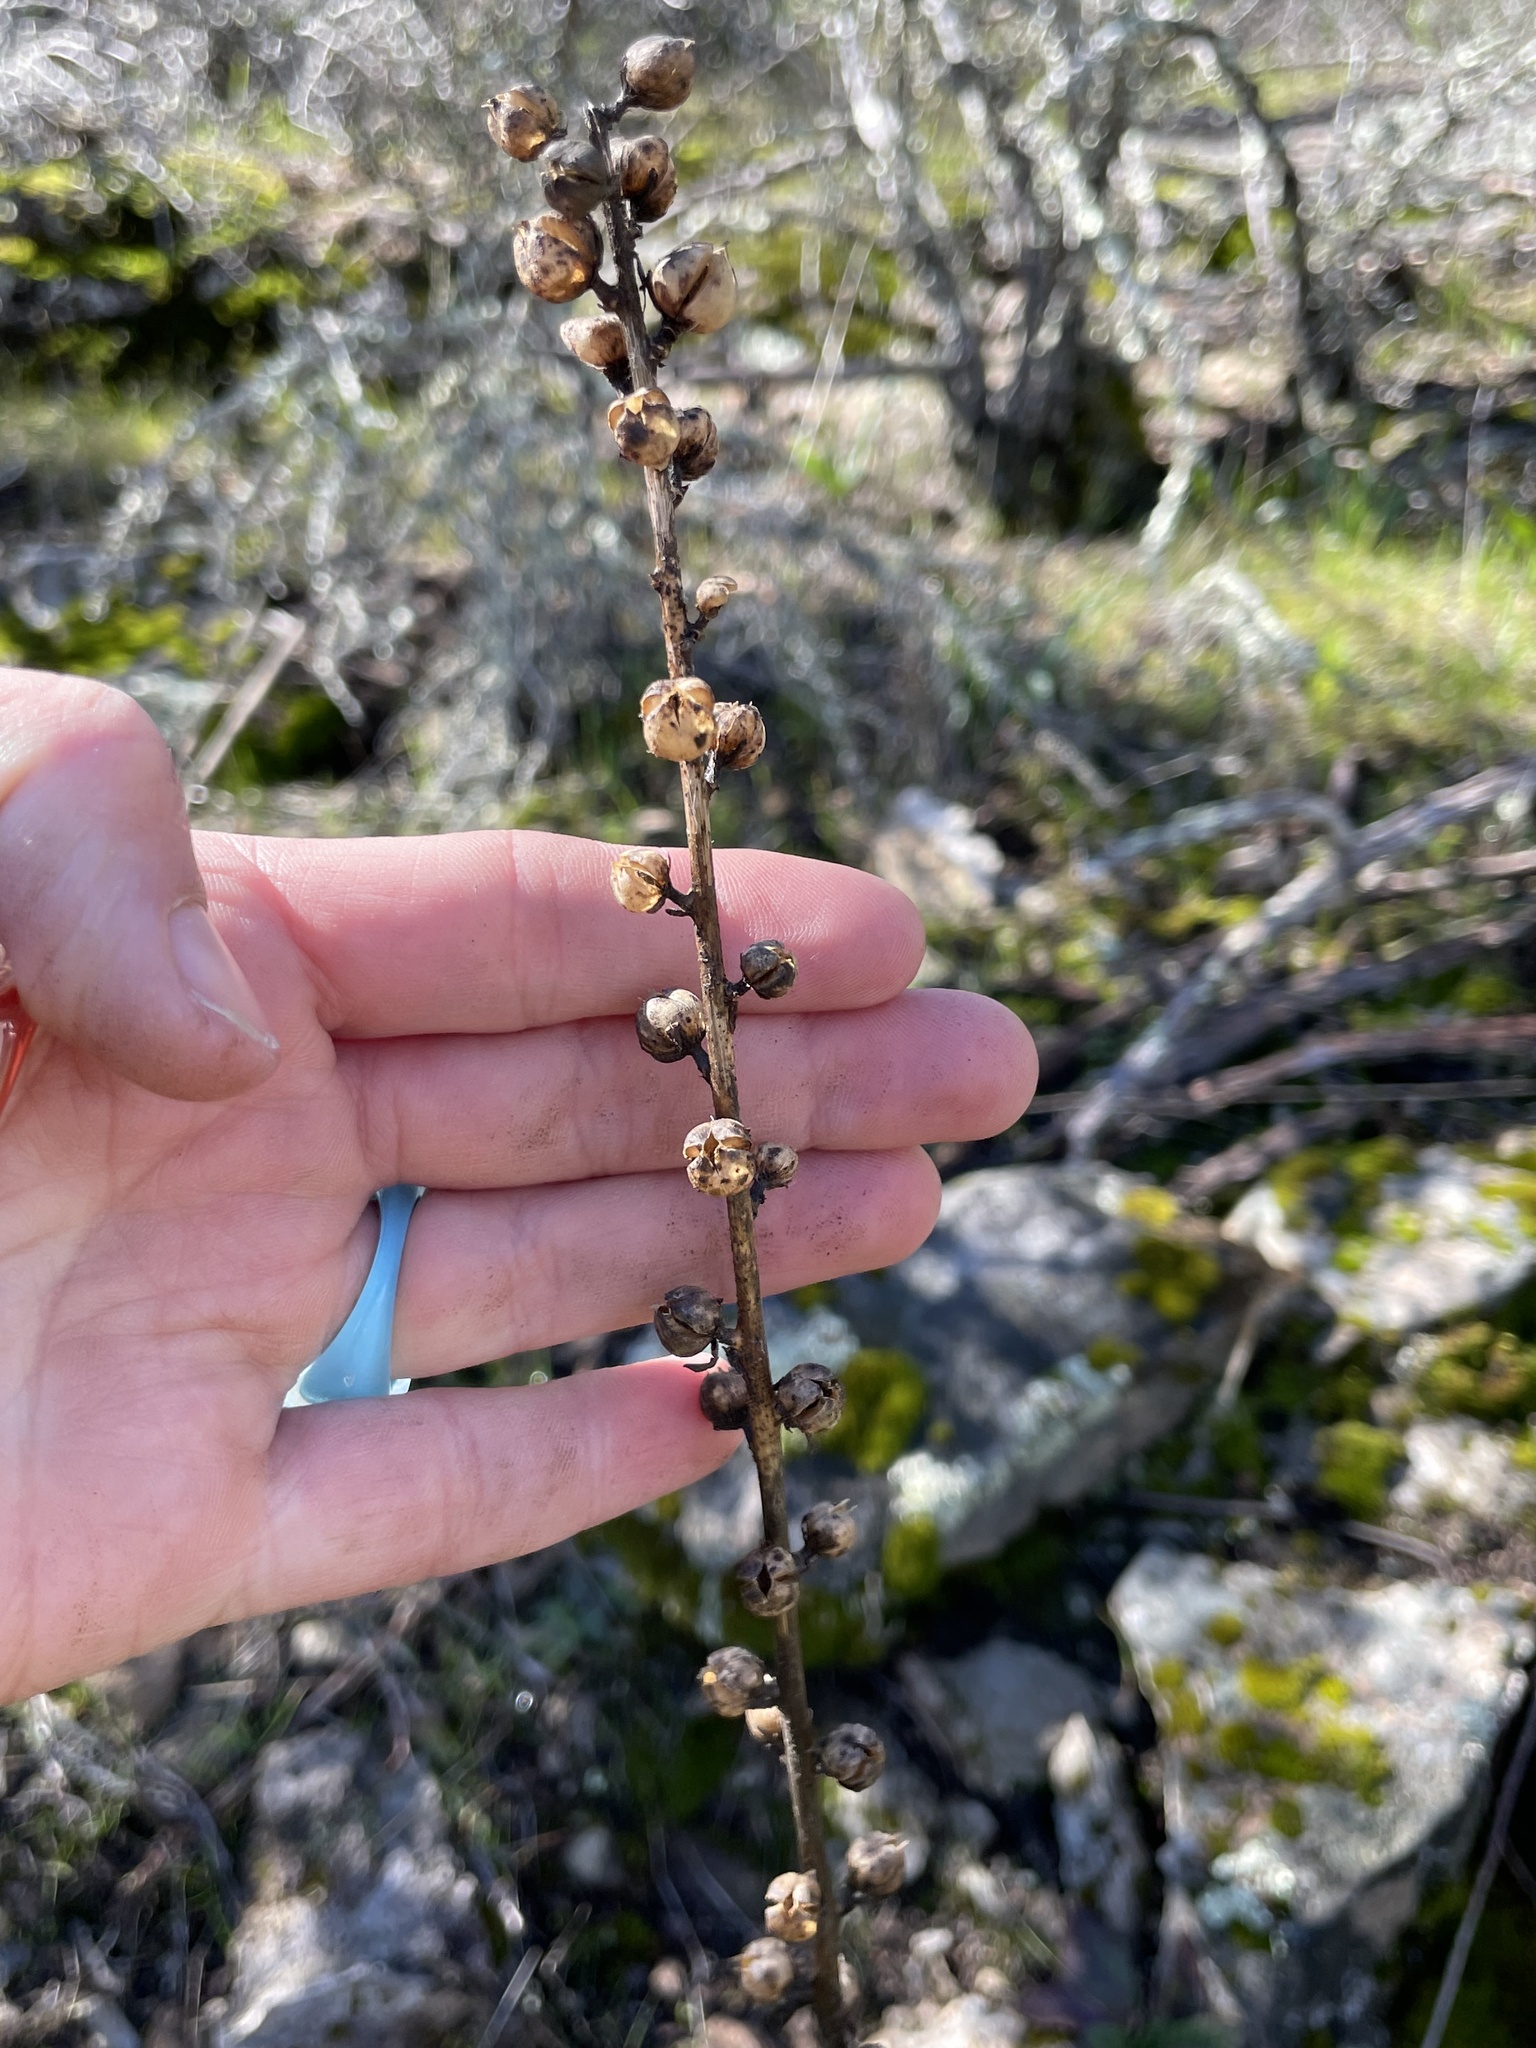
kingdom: Plantae
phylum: Tracheophyta
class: Magnoliopsida
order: Lamiales
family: Scrophulariaceae
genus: Verbascum
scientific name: Verbascum virgatum
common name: Twiggy mullein
